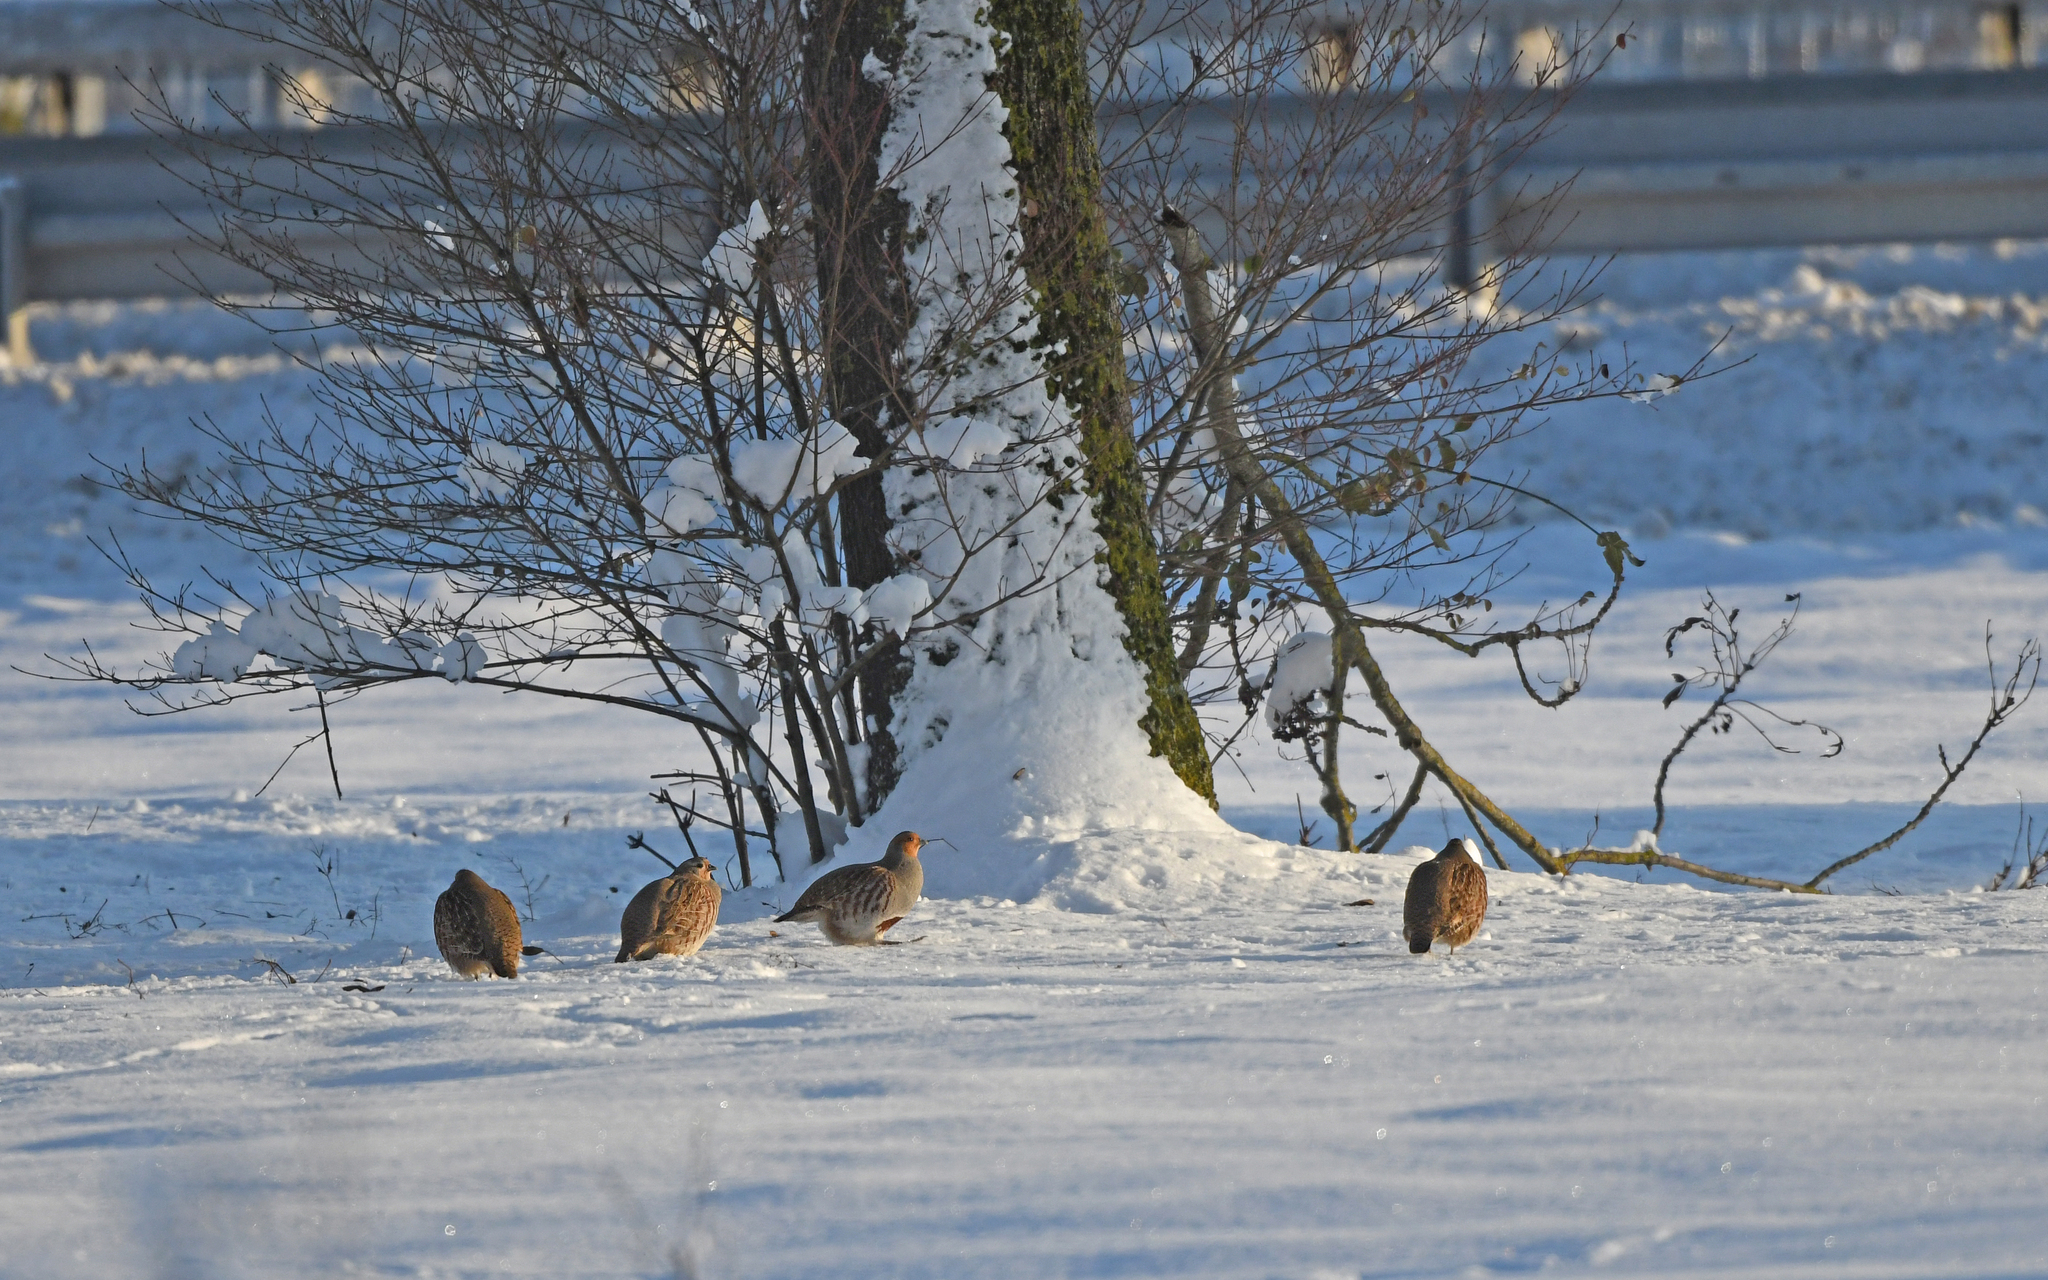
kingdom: Animalia
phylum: Chordata
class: Aves
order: Galliformes
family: Phasianidae
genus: Perdix
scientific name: Perdix perdix
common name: Grey partridge
